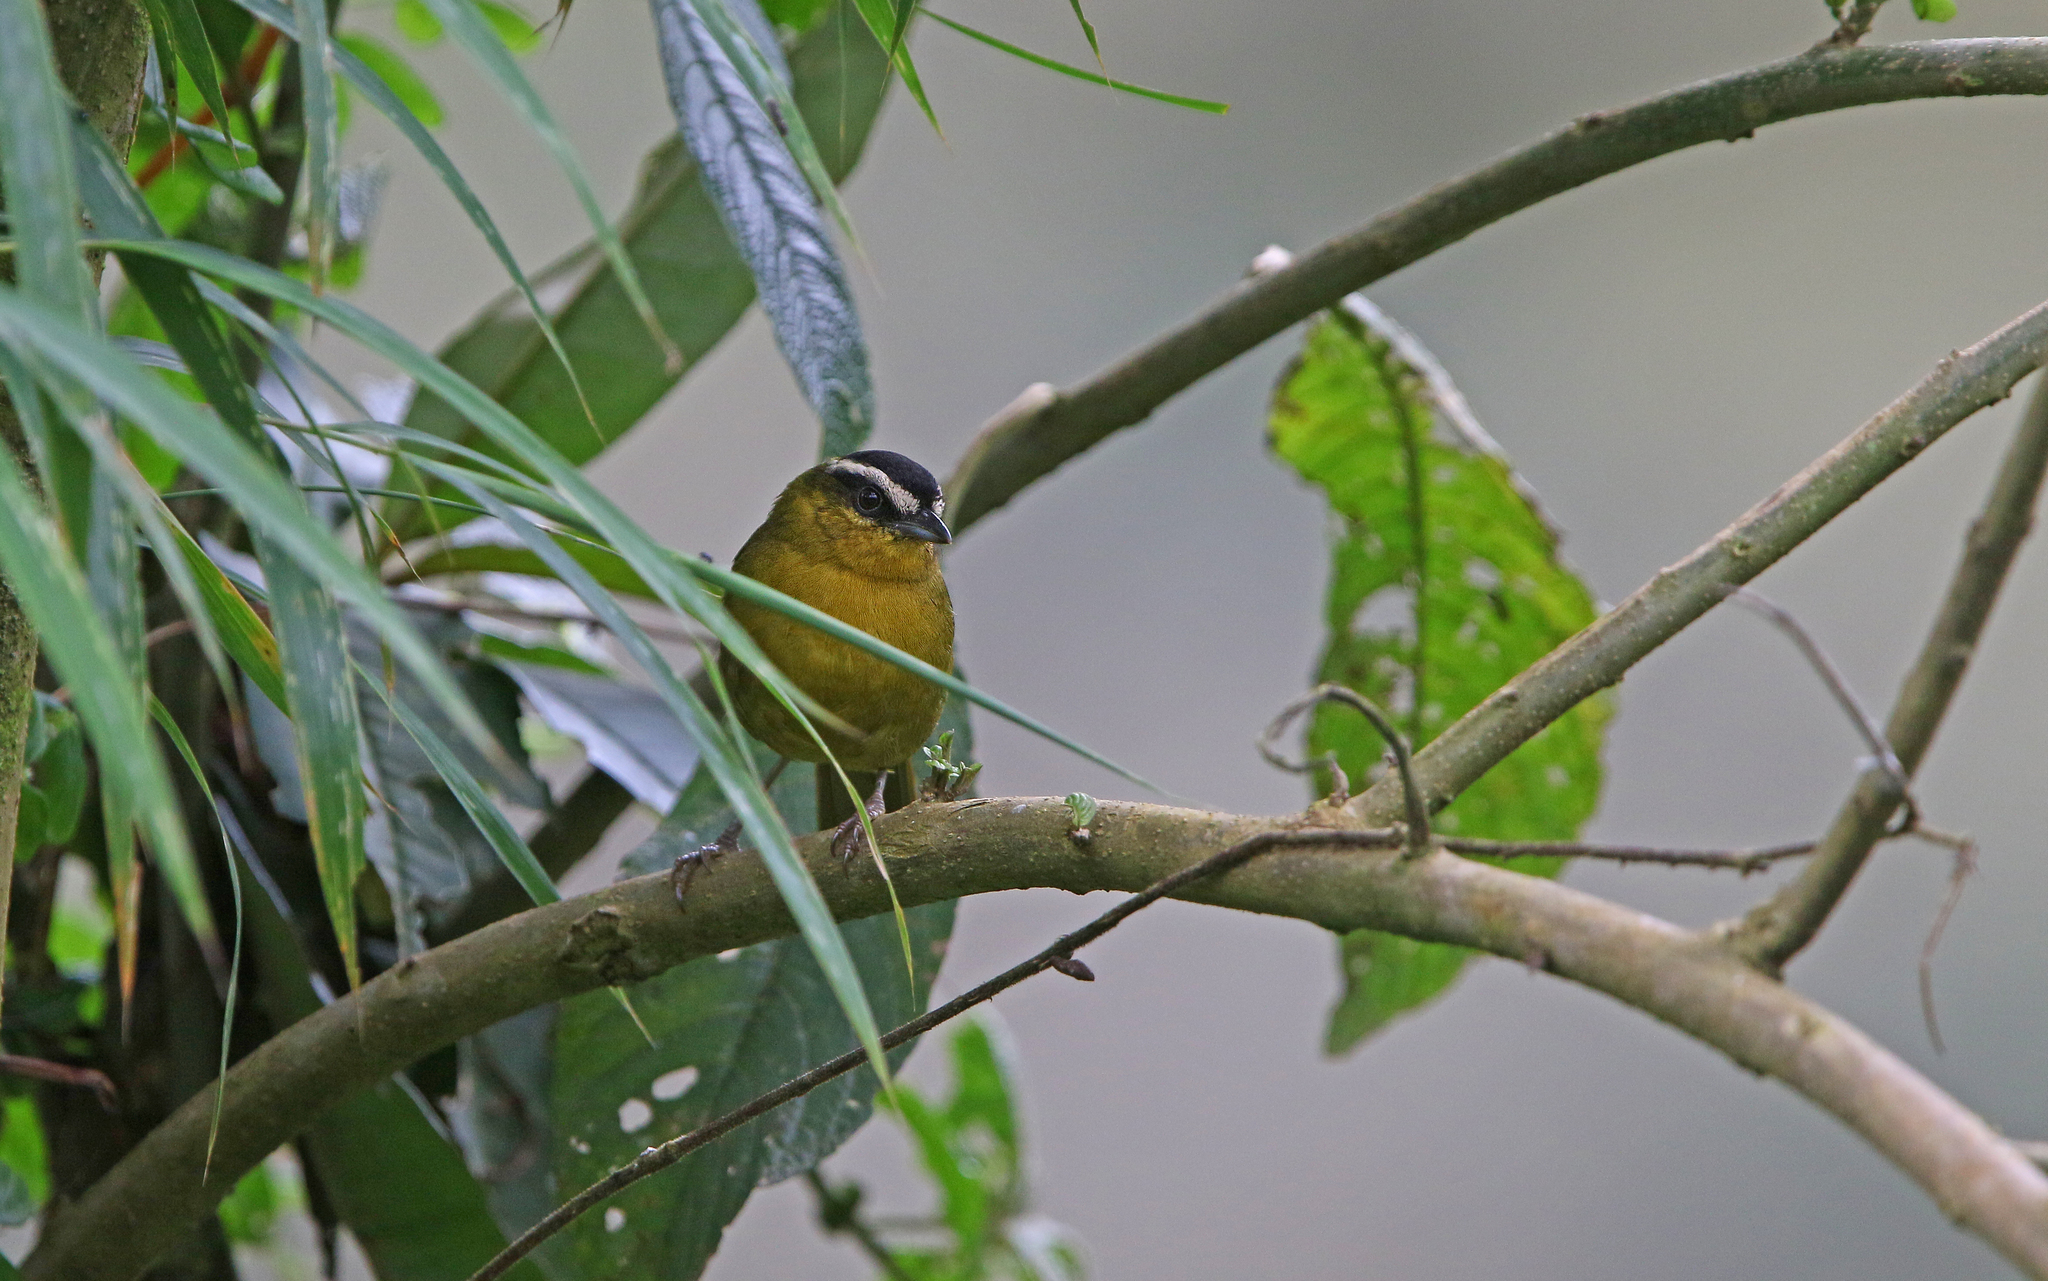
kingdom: Animalia
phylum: Chordata
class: Aves
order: Passeriformes
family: Thraupidae
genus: Kleinothraupis
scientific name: Kleinothraupis atropileus
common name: Black-capped hemispingus
